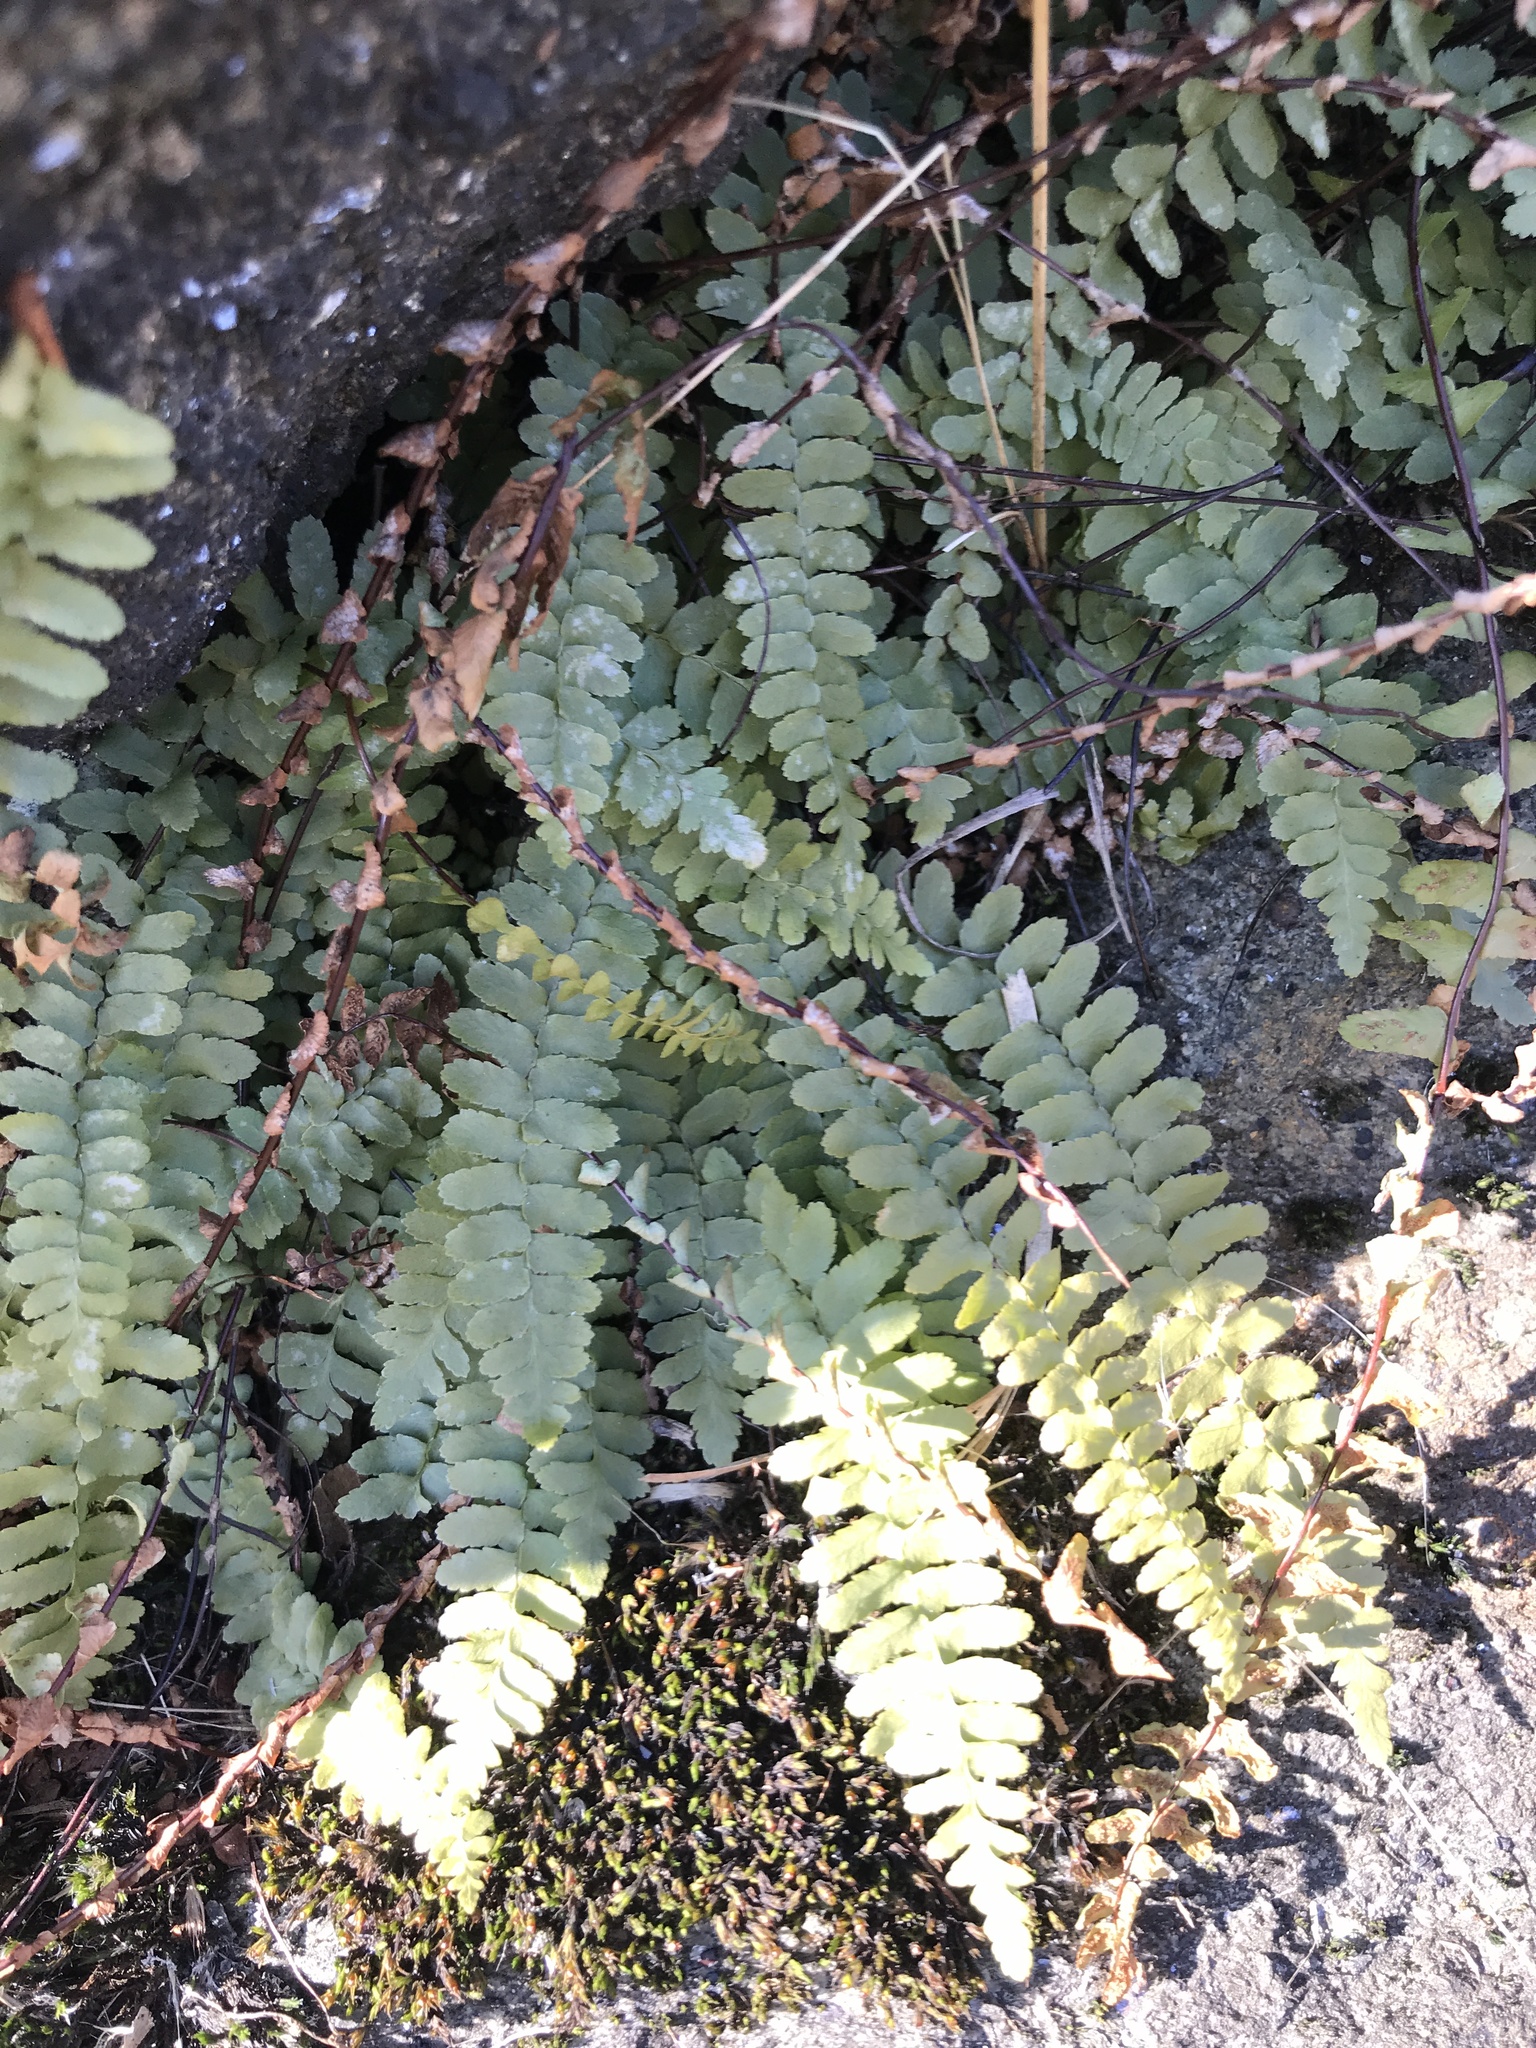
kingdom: Plantae
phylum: Tracheophyta
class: Polypodiopsida
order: Polypodiales
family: Aspleniaceae
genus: Asplenium
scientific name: Asplenium platyneuron
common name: Ebony spleenwort
